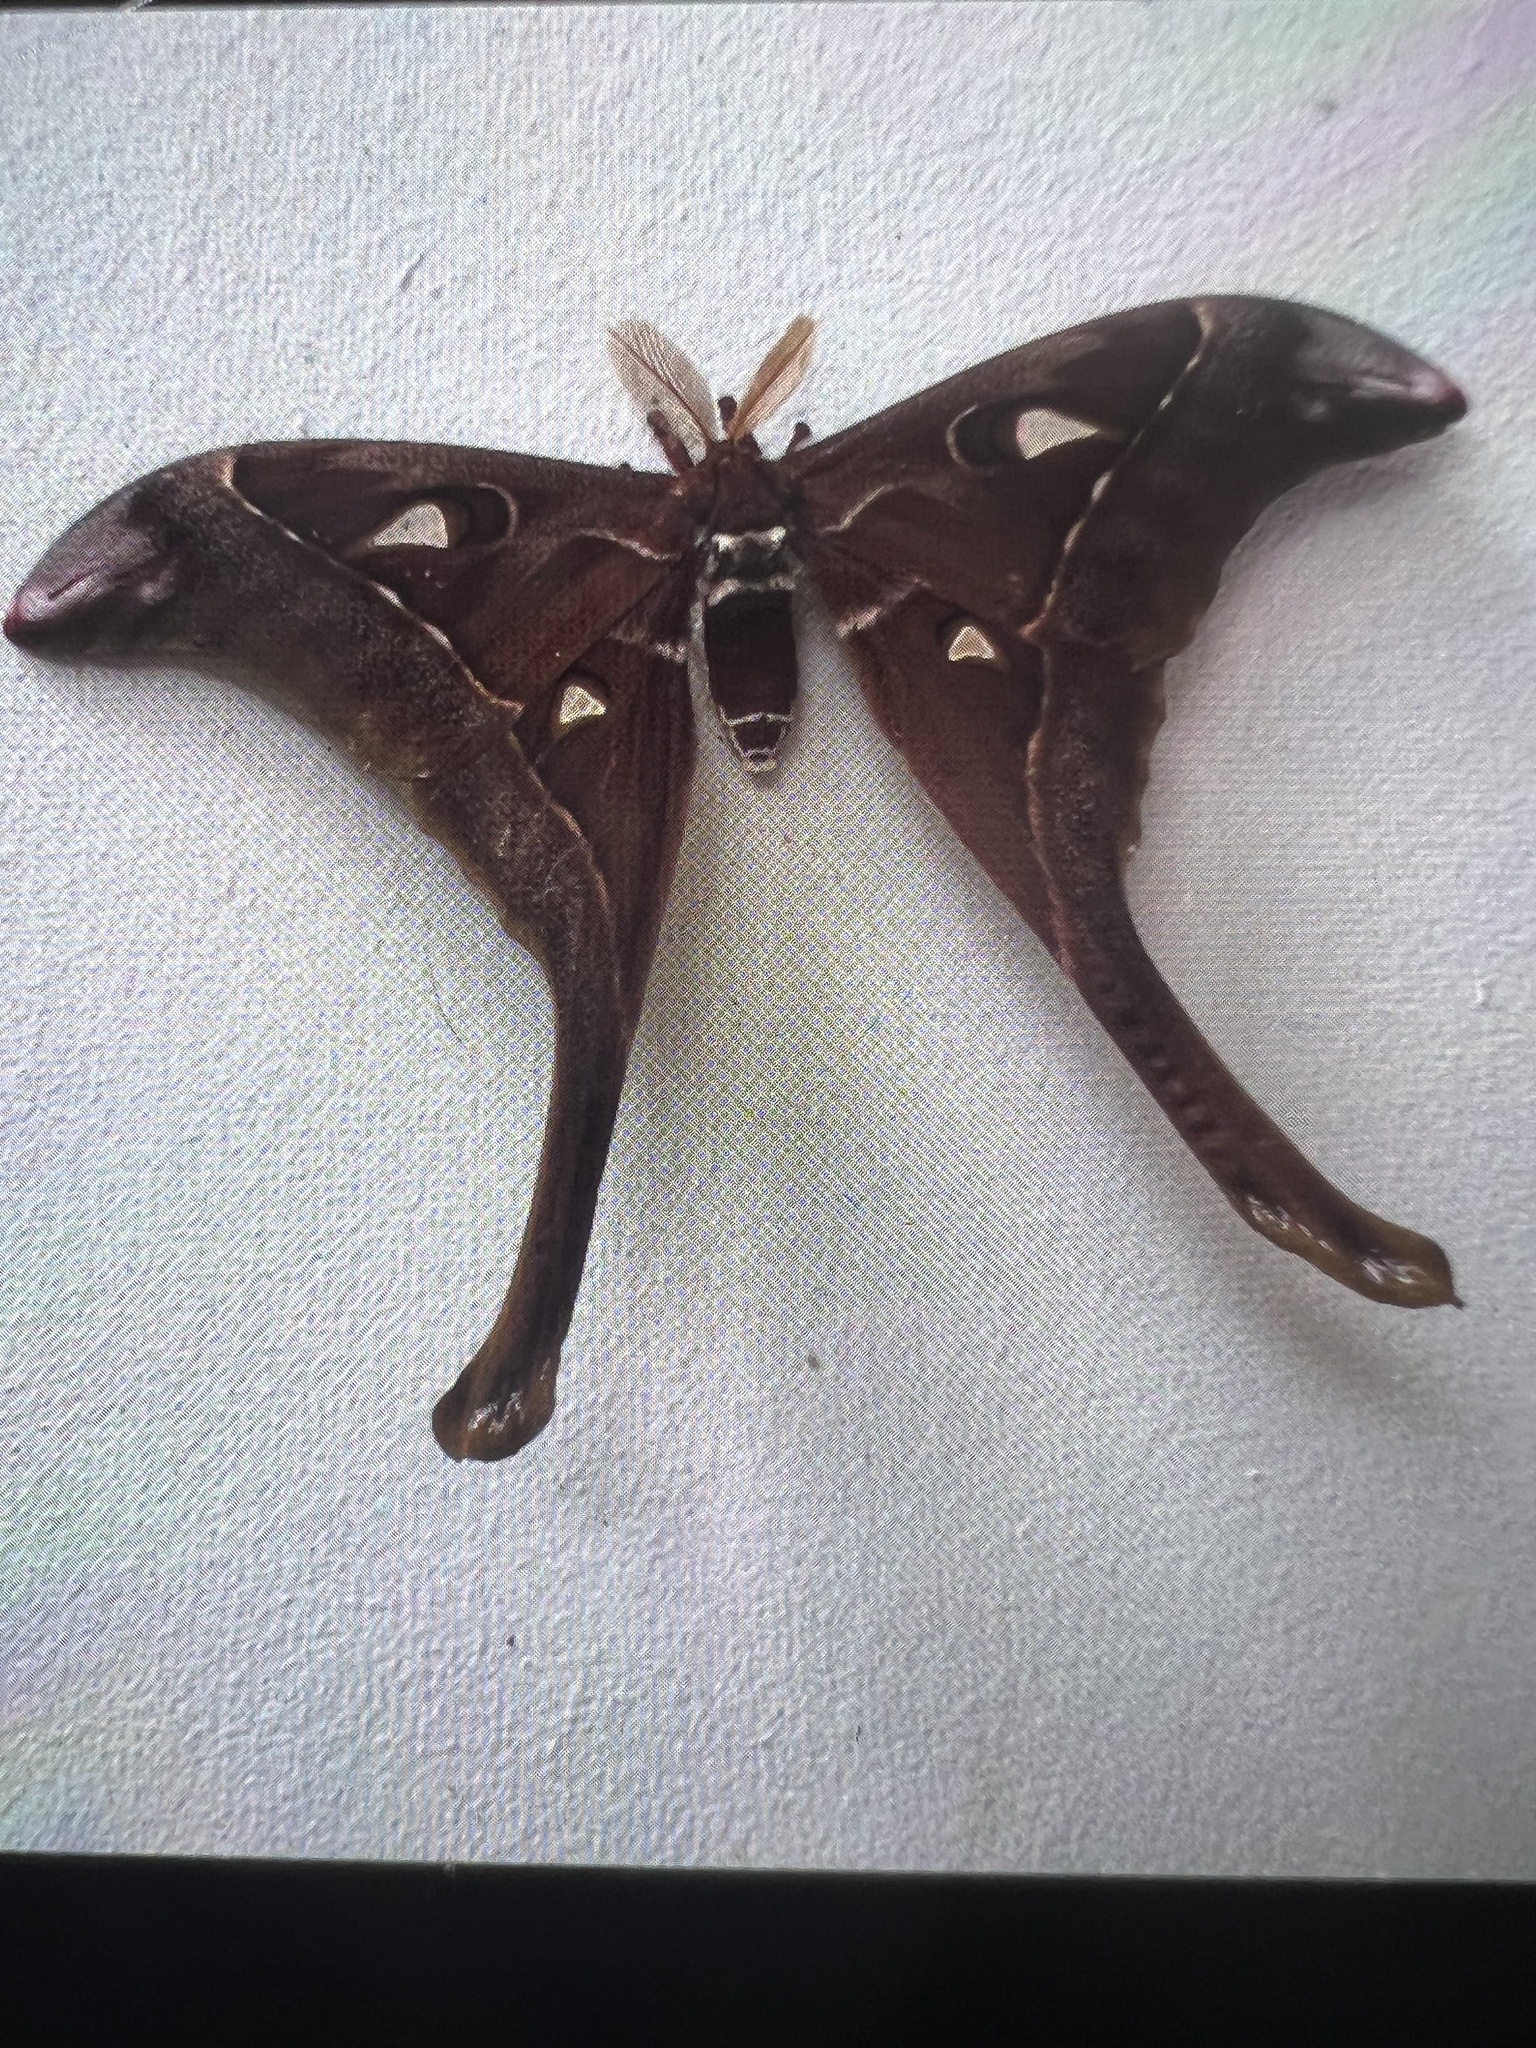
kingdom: Animalia
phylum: Arthropoda
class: Insecta
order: Lepidoptera
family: Saturniidae
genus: Coscinocera
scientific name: Coscinocera hercules
